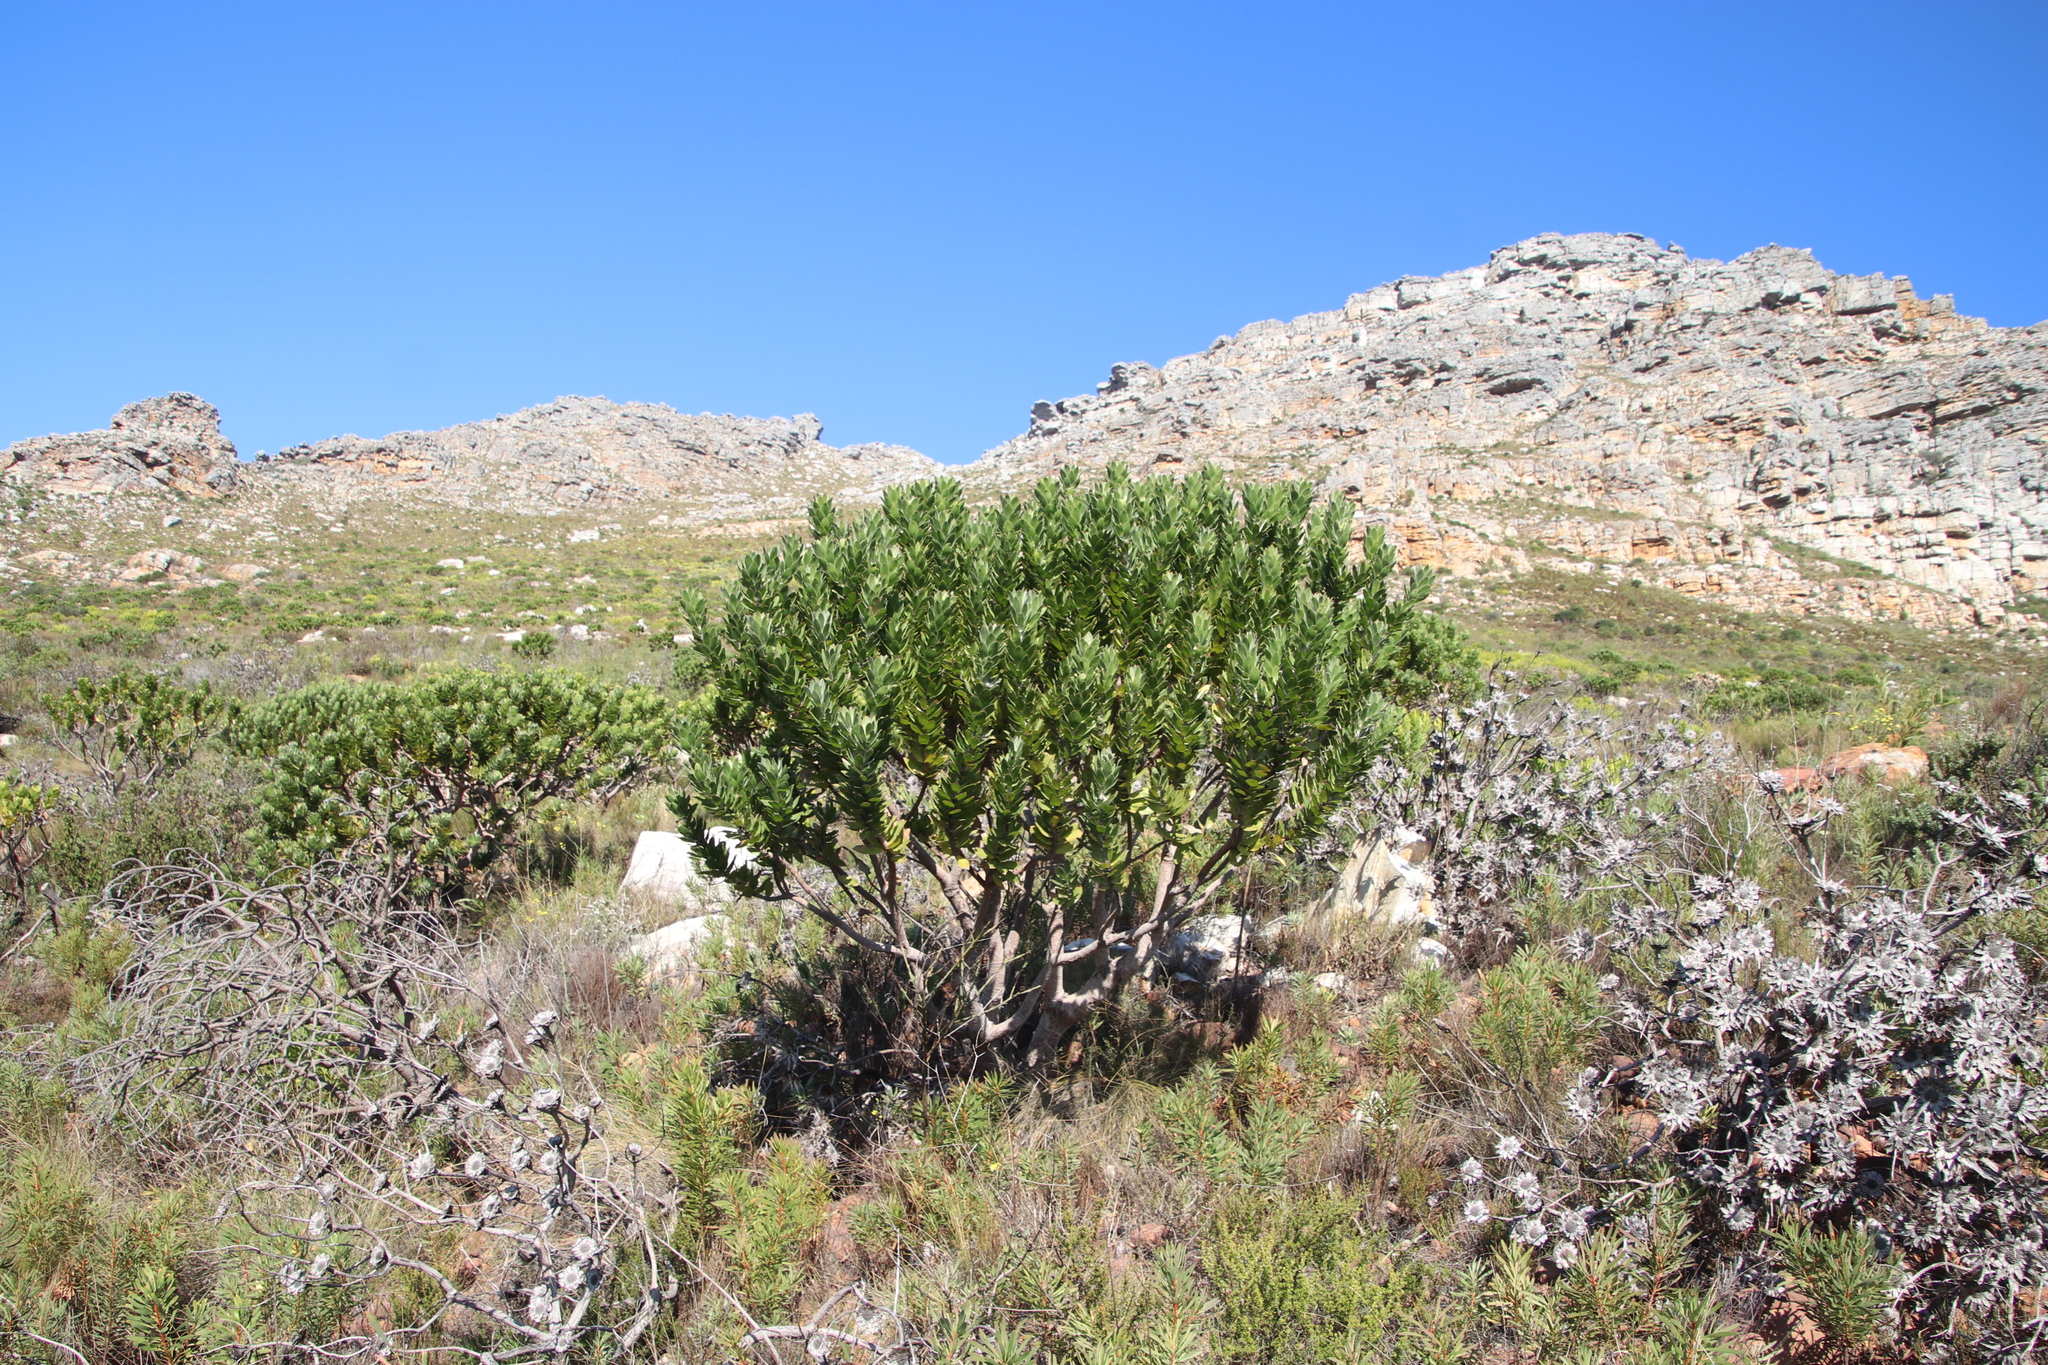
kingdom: Plantae
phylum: Tracheophyta
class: Magnoliopsida
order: Proteales
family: Proteaceae
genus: Leucospermum
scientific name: Leucospermum conocarpodendron
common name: Tree pincushion
